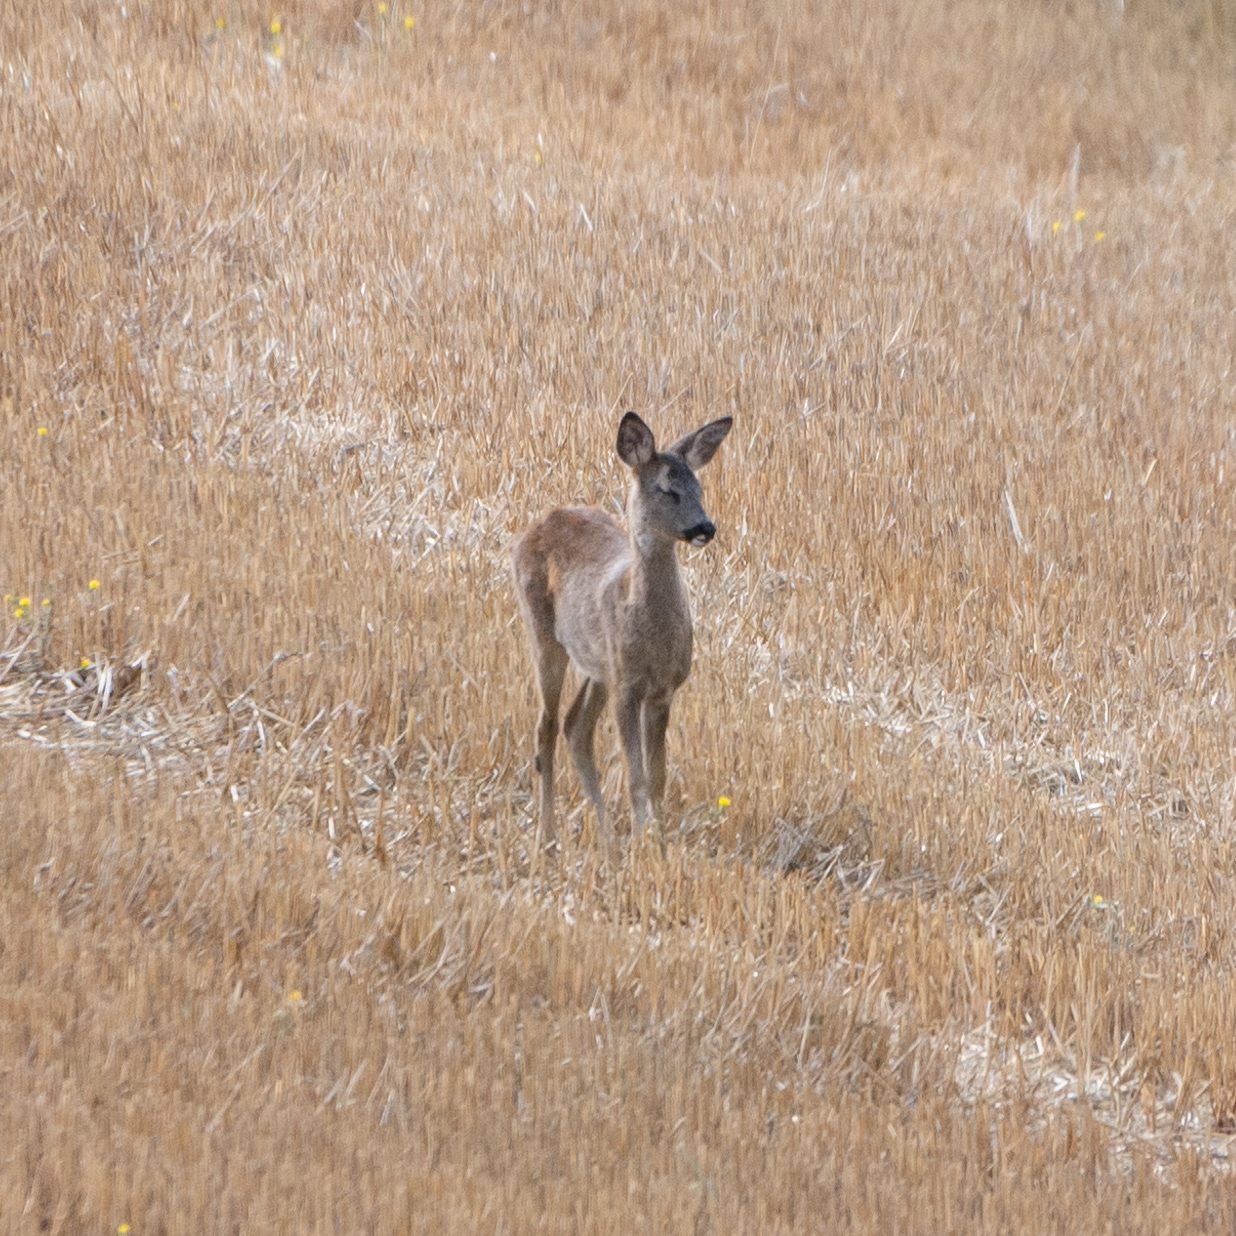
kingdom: Animalia
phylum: Chordata
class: Mammalia
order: Artiodactyla
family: Cervidae
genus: Capreolus
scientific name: Capreolus capreolus
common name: Western roe deer
